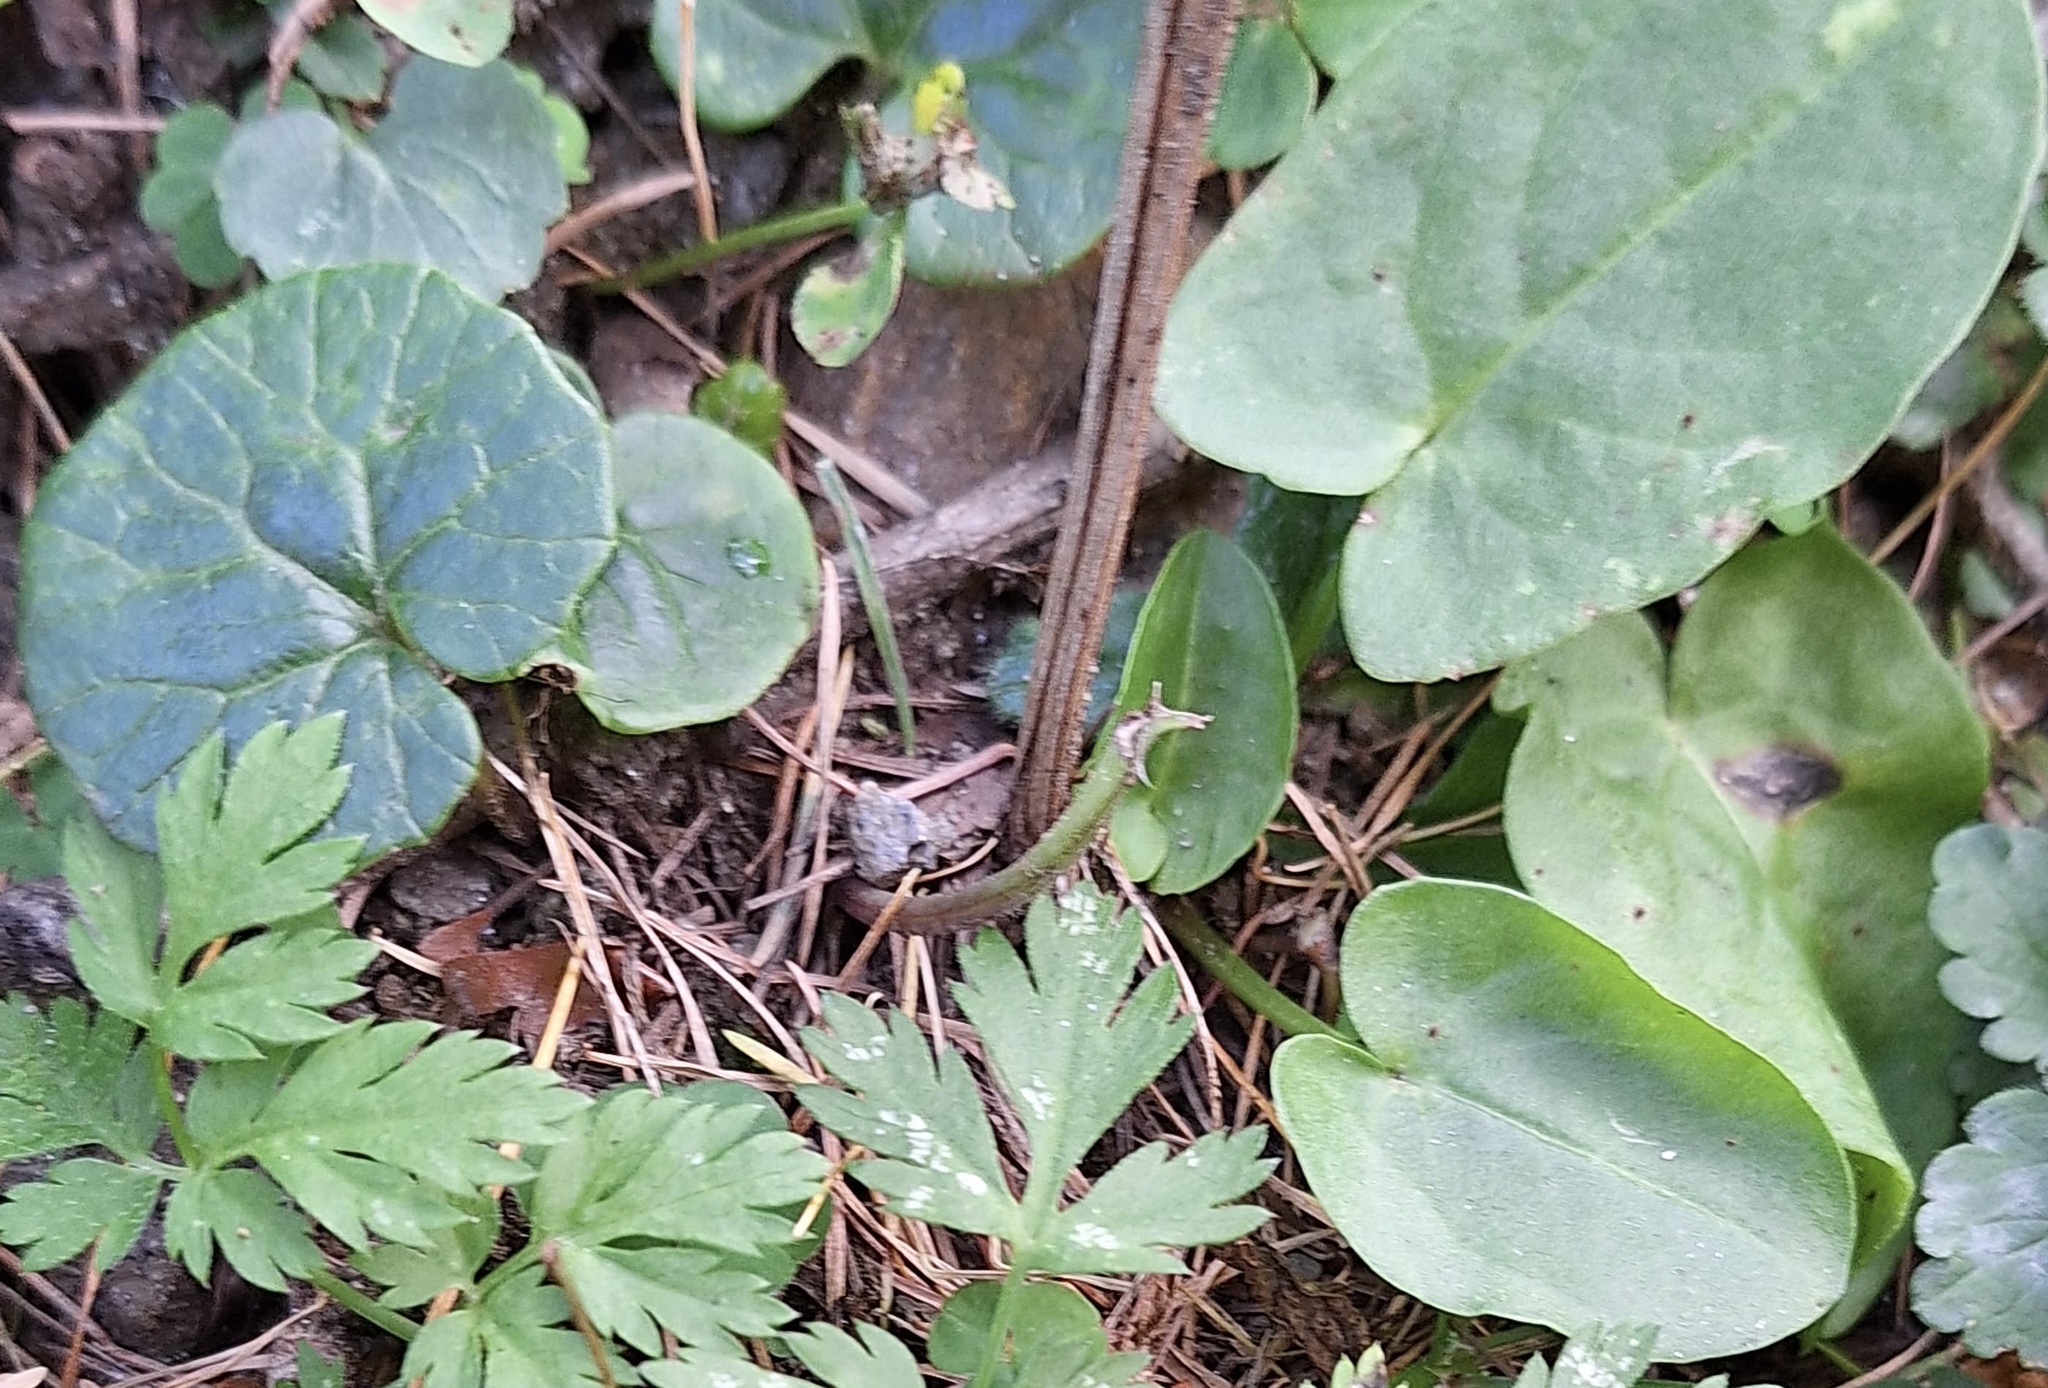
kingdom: Plantae
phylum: Tracheophyta
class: Magnoliopsida
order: Asterales
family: Asteraceae
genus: Homogyne
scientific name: Homogyne alpina
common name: Purple colt's-foot
